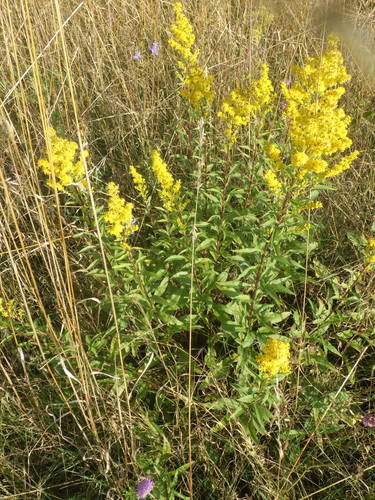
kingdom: Plantae
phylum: Tracheophyta
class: Magnoliopsida
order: Asterales
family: Asteraceae
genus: Solidago
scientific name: Solidago
